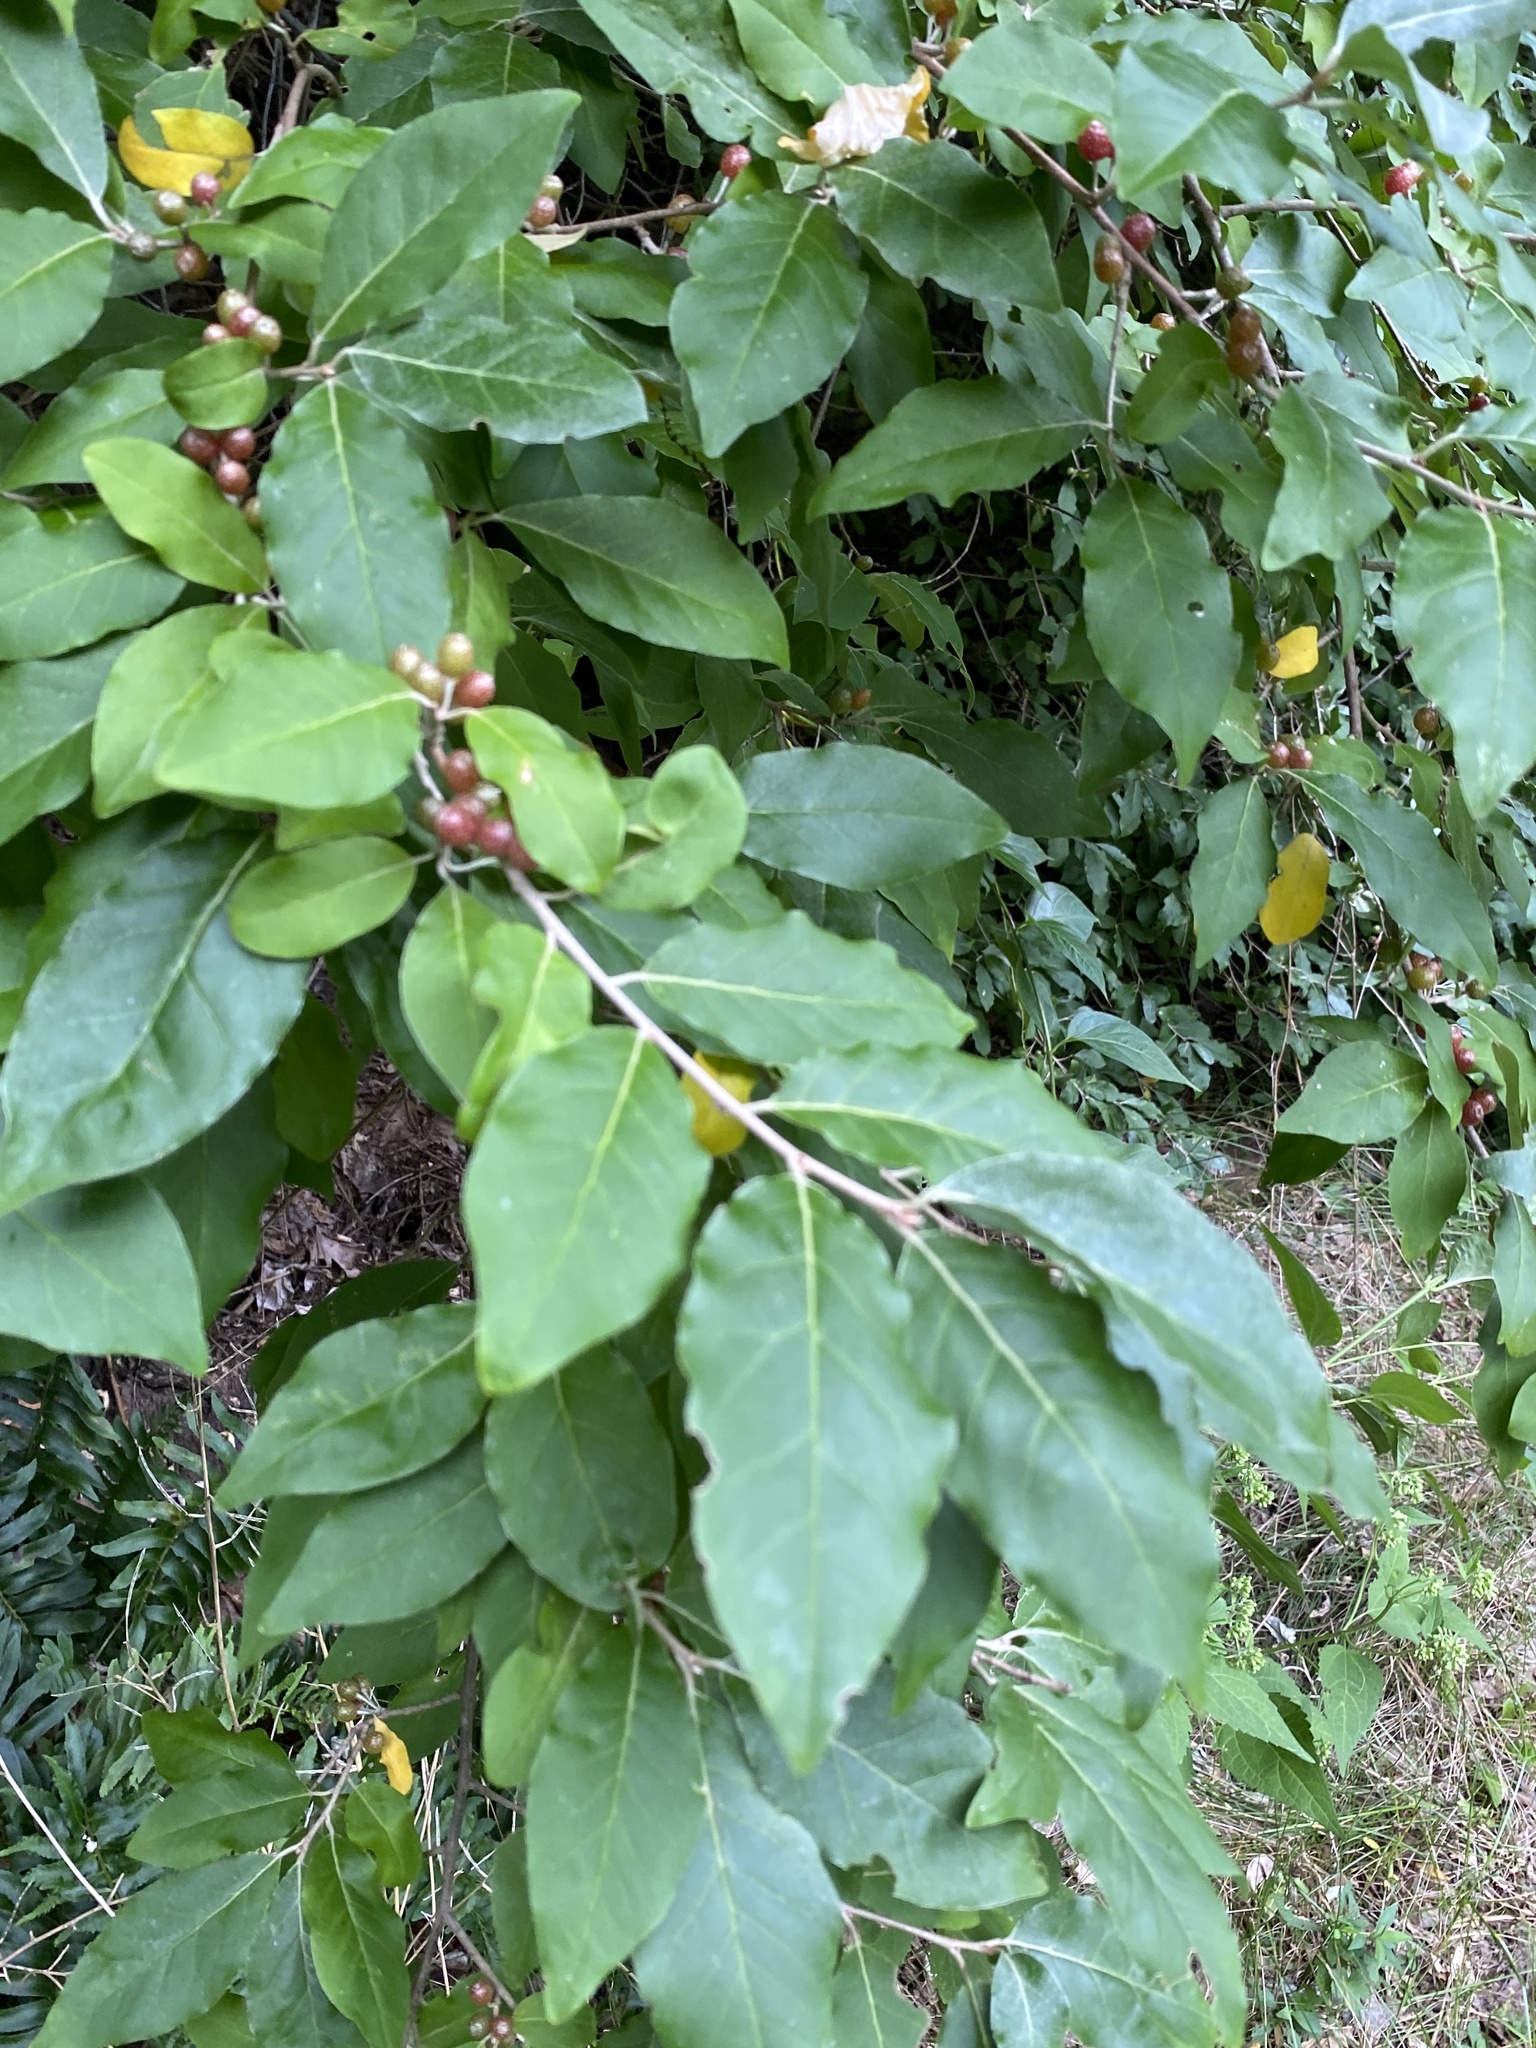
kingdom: Plantae
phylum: Tracheophyta
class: Magnoliopsida
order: Rosales
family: Elaeagnaceae
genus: Elaeagnus
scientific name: Elaeagnus umbellata
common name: Autumn olive
